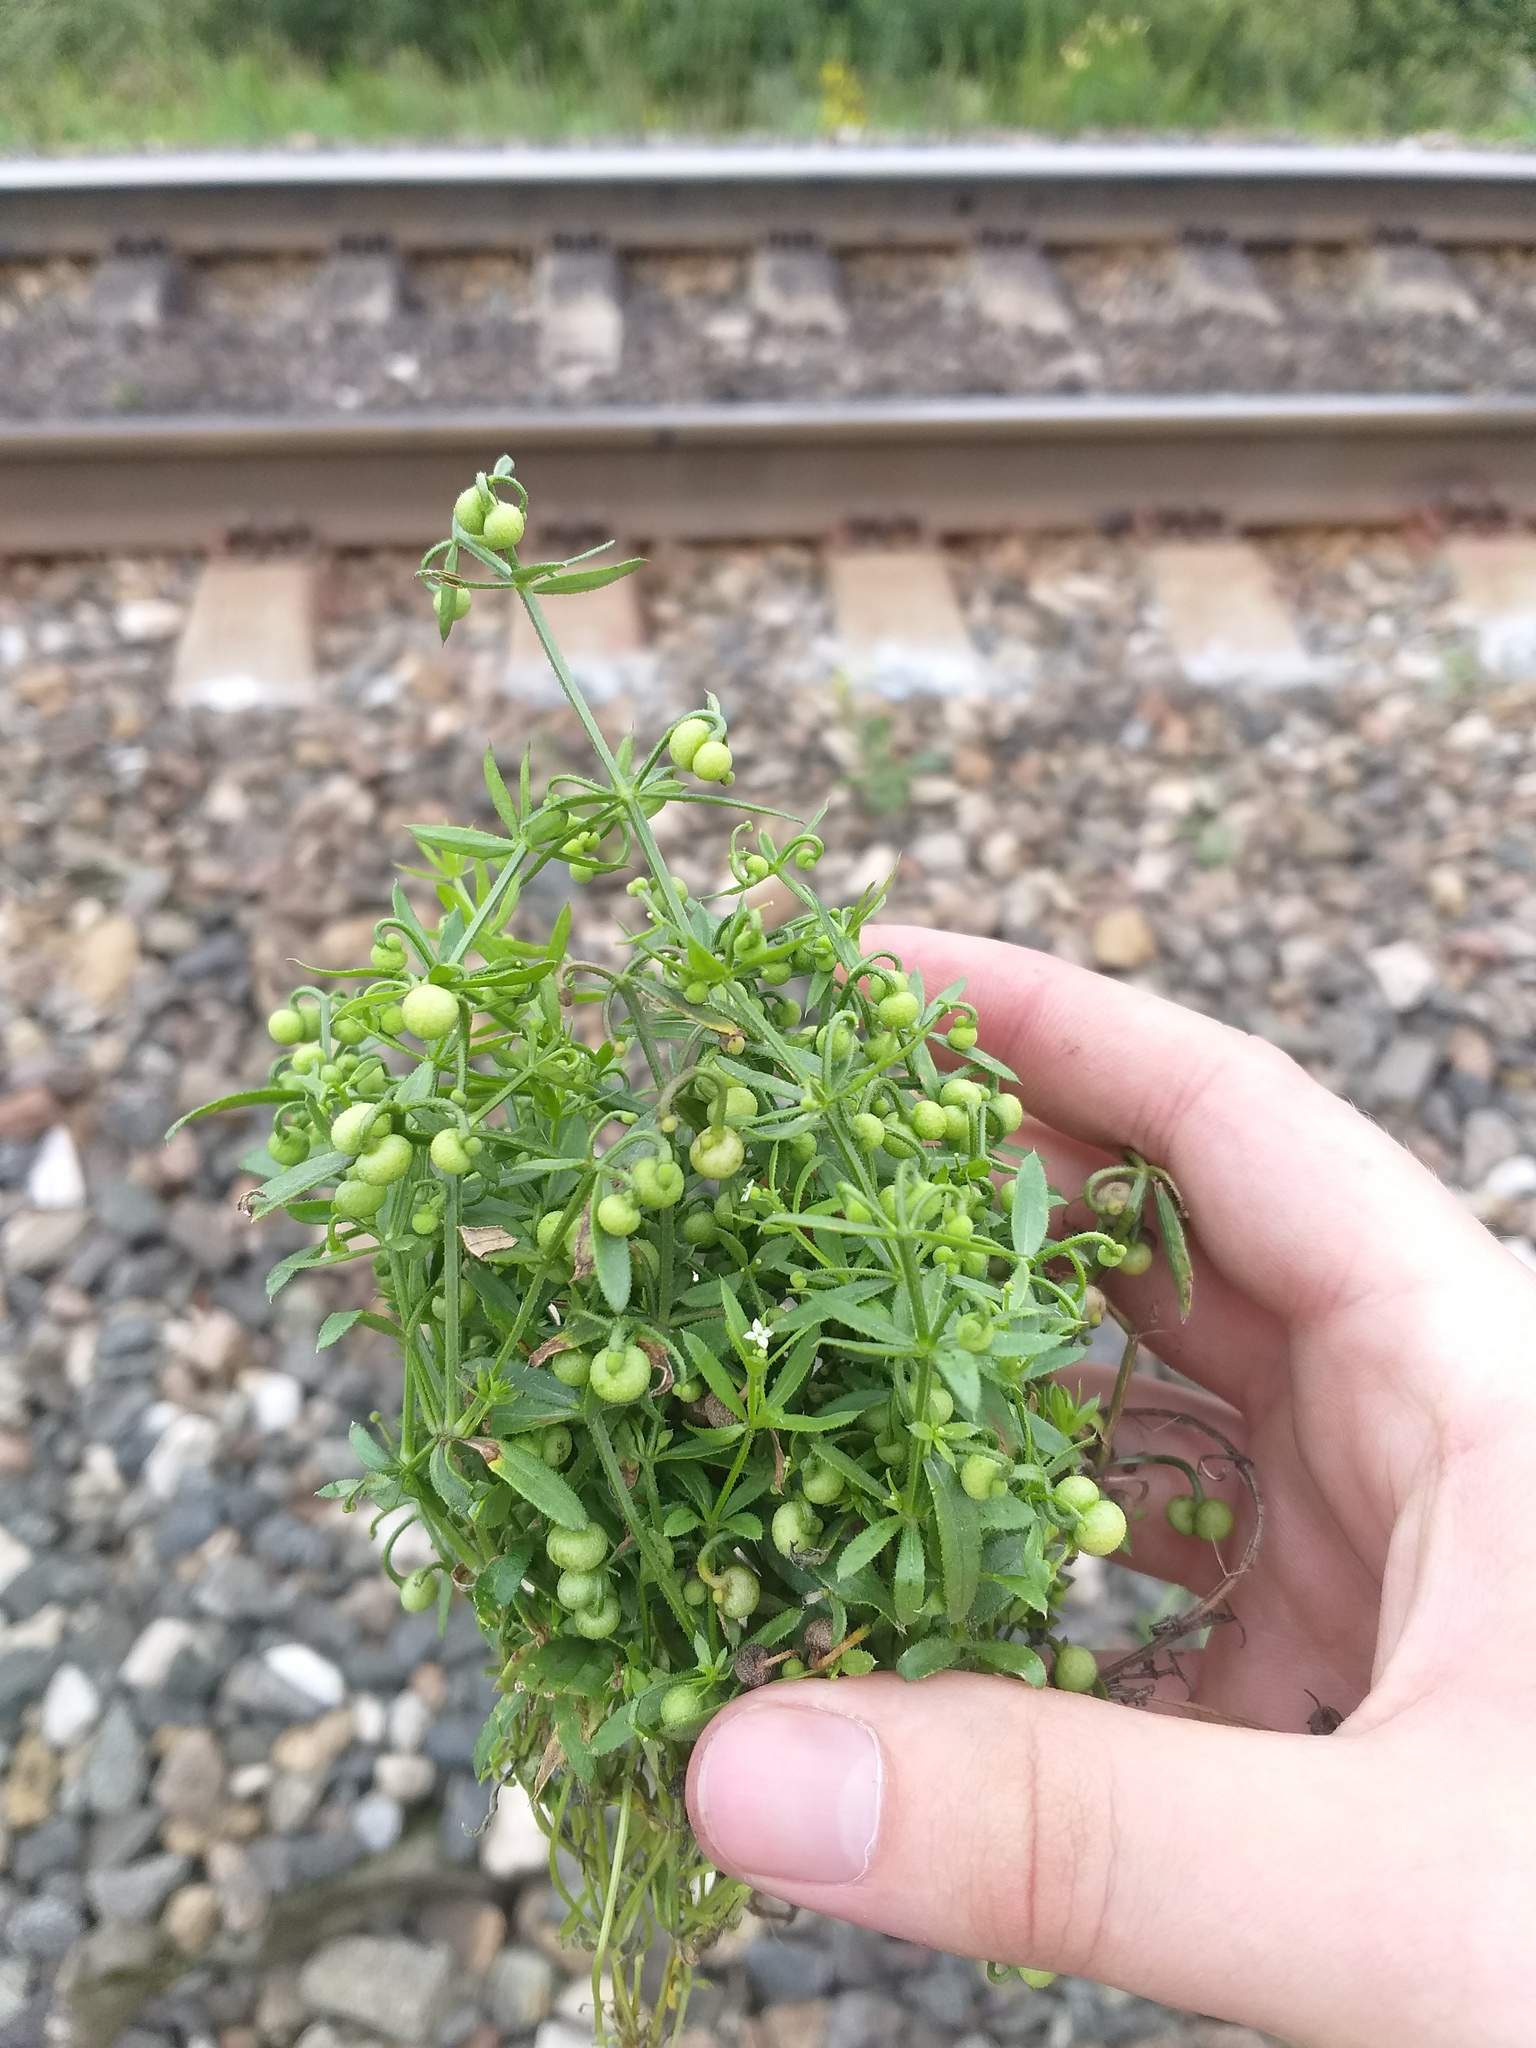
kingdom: Plantae
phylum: Tracheophyta
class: Magnoliopsida
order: Gentianales
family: Rubiaceae
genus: Galium
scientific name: Galium tricornutum
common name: Corn cleavers
